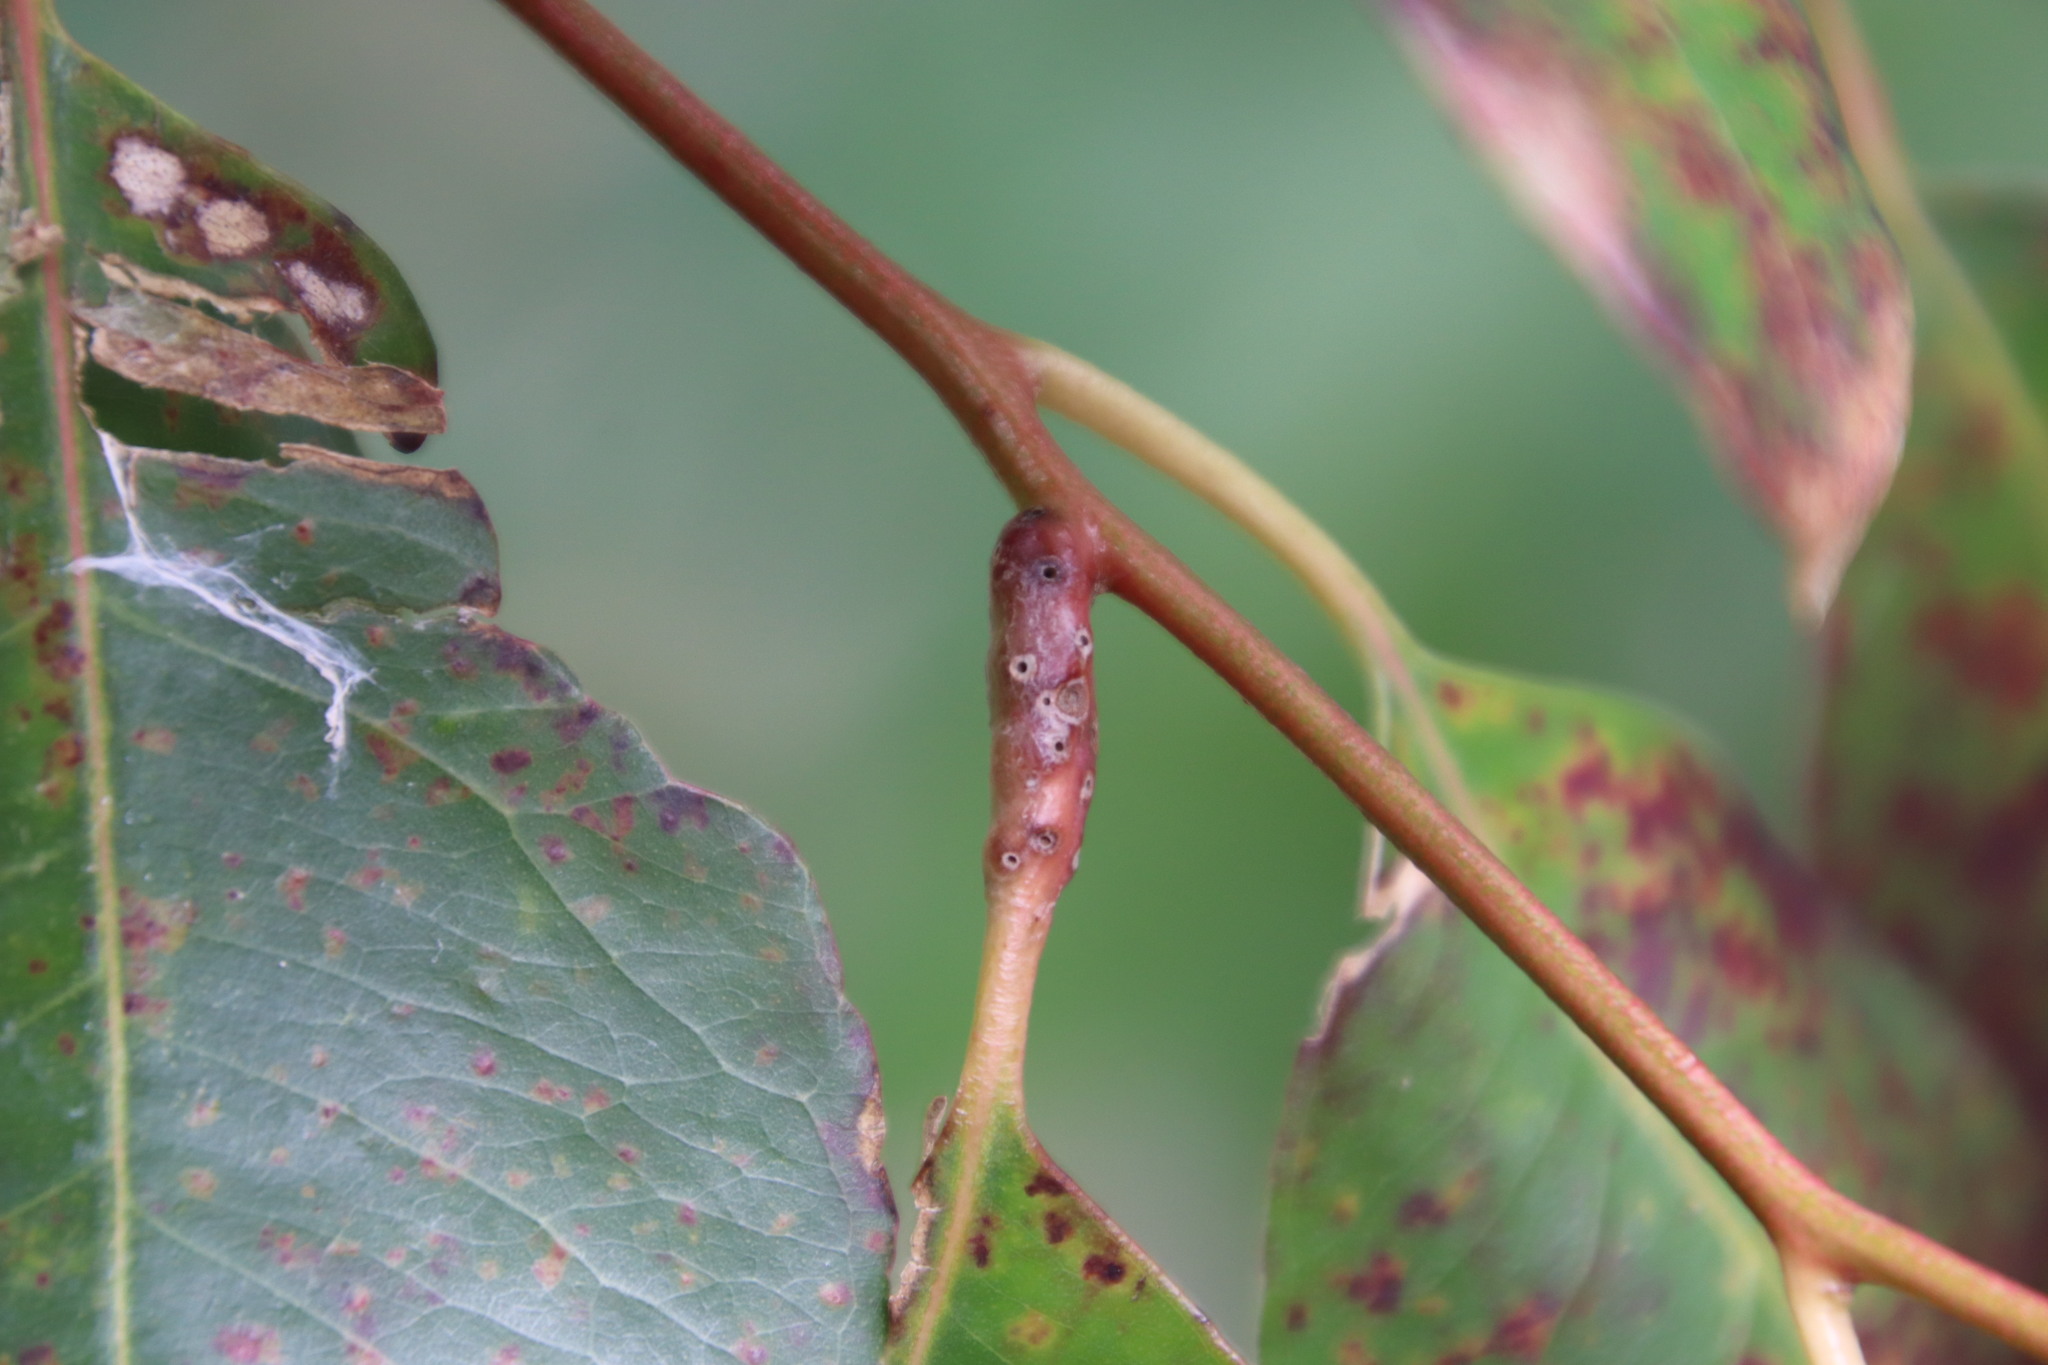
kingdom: Animalia
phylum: Arthropoda
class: Insecta
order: Hymenoptera
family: Eulophidae
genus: Leptocybe
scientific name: Leptocybe invasa
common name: Gall wasp
